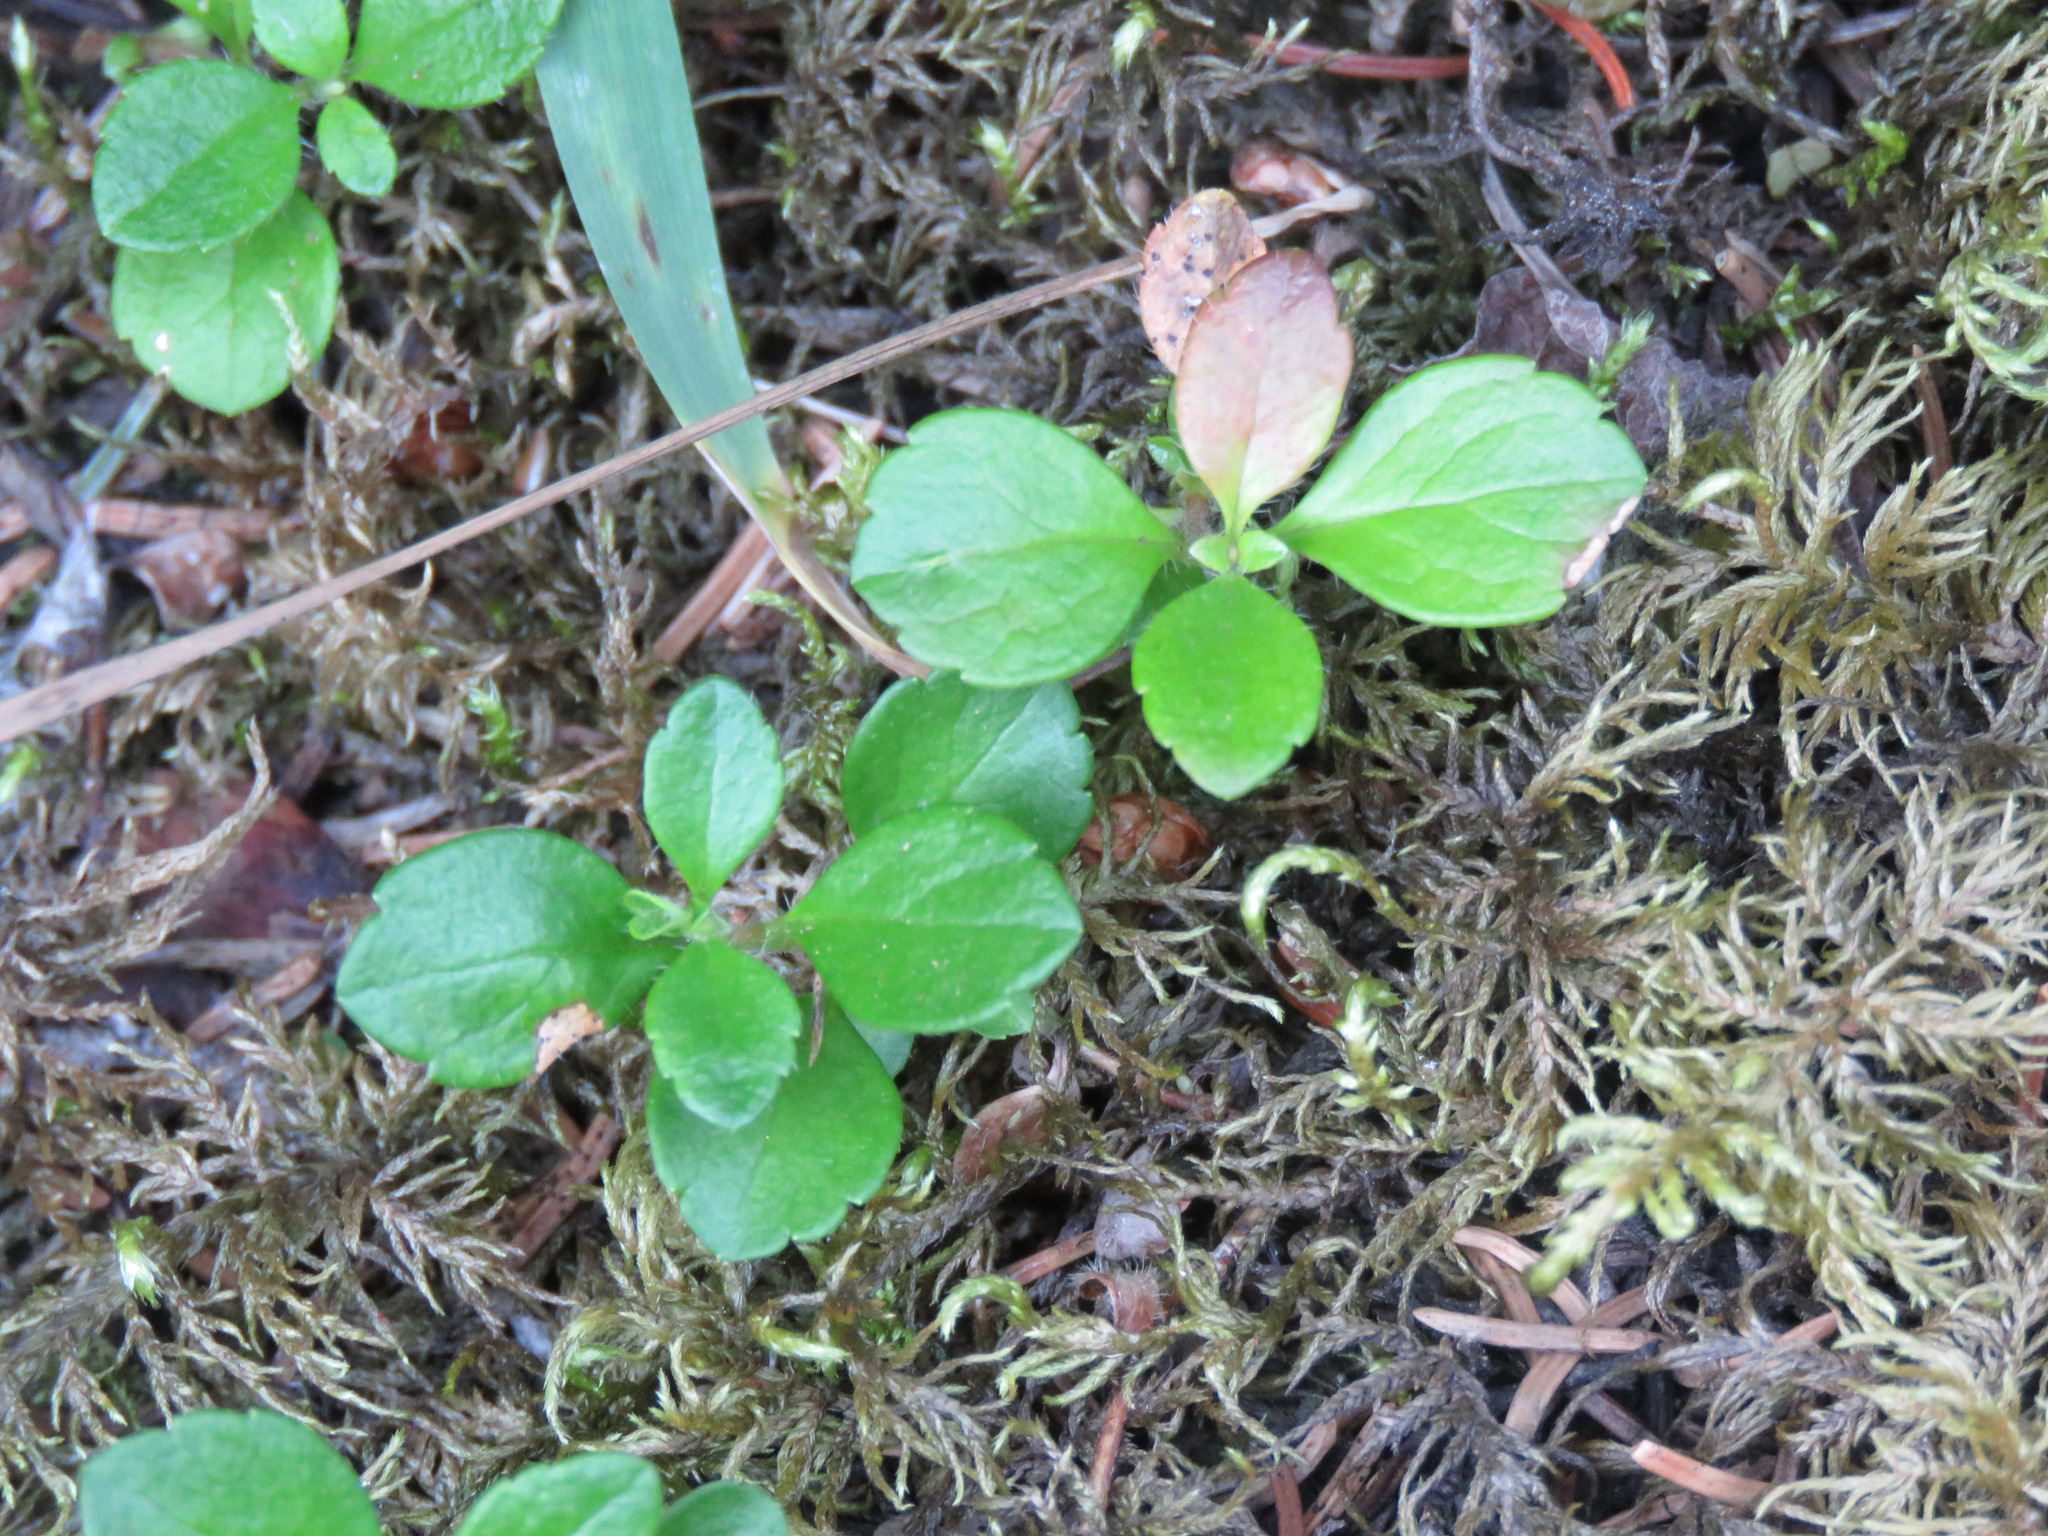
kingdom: Plantae
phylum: Tracheophyta
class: Magnoliopsida
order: Dipsacales
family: Caprifoliaceae
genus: Linnaea
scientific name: Linnaea borealis
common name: Twinflower
